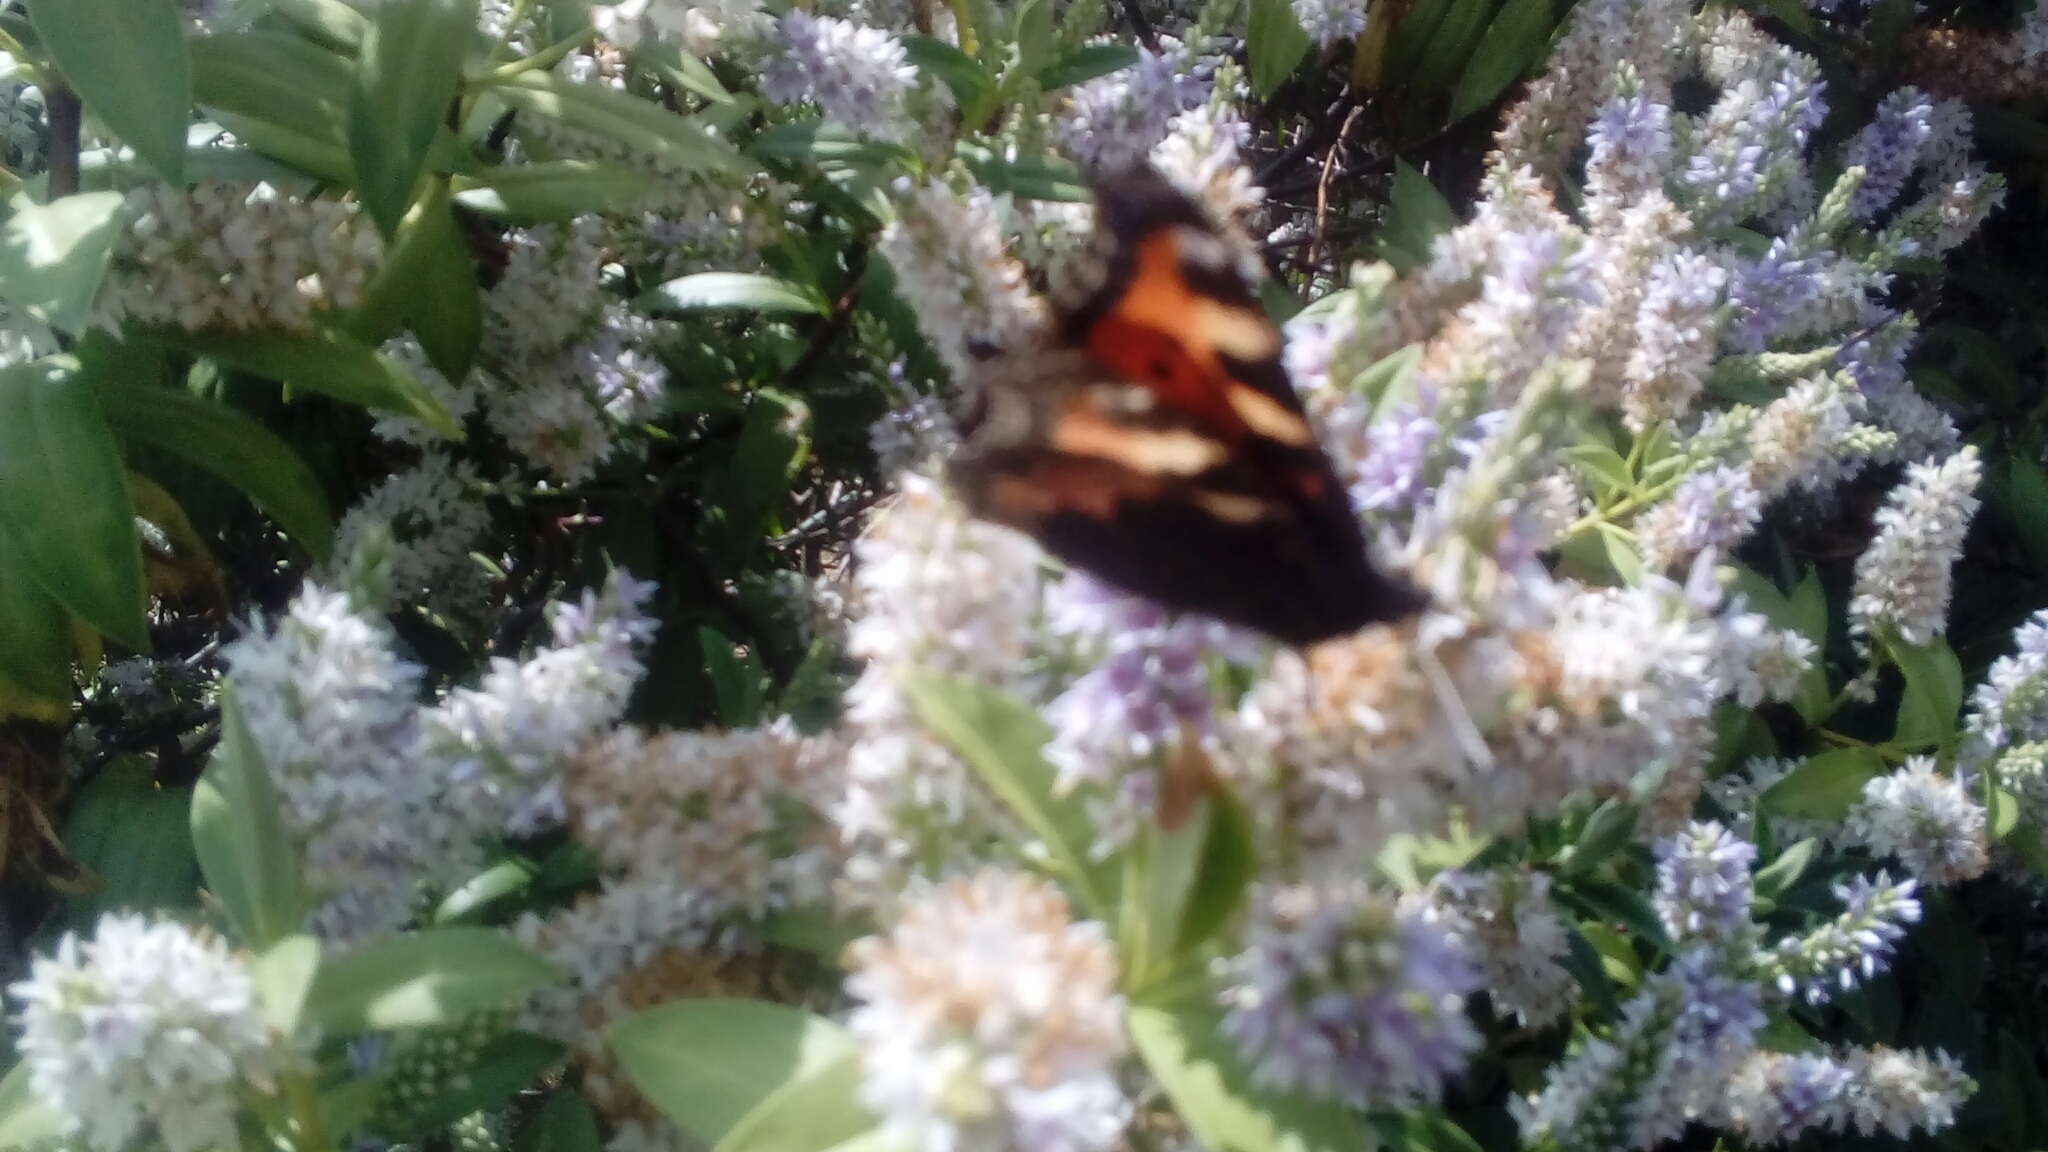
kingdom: Animalia
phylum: Arthropoda
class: Insecta
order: Lepidoptera
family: Nymphalidae
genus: Aglais
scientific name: Aglais urticae
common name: Small tortoiseshell
